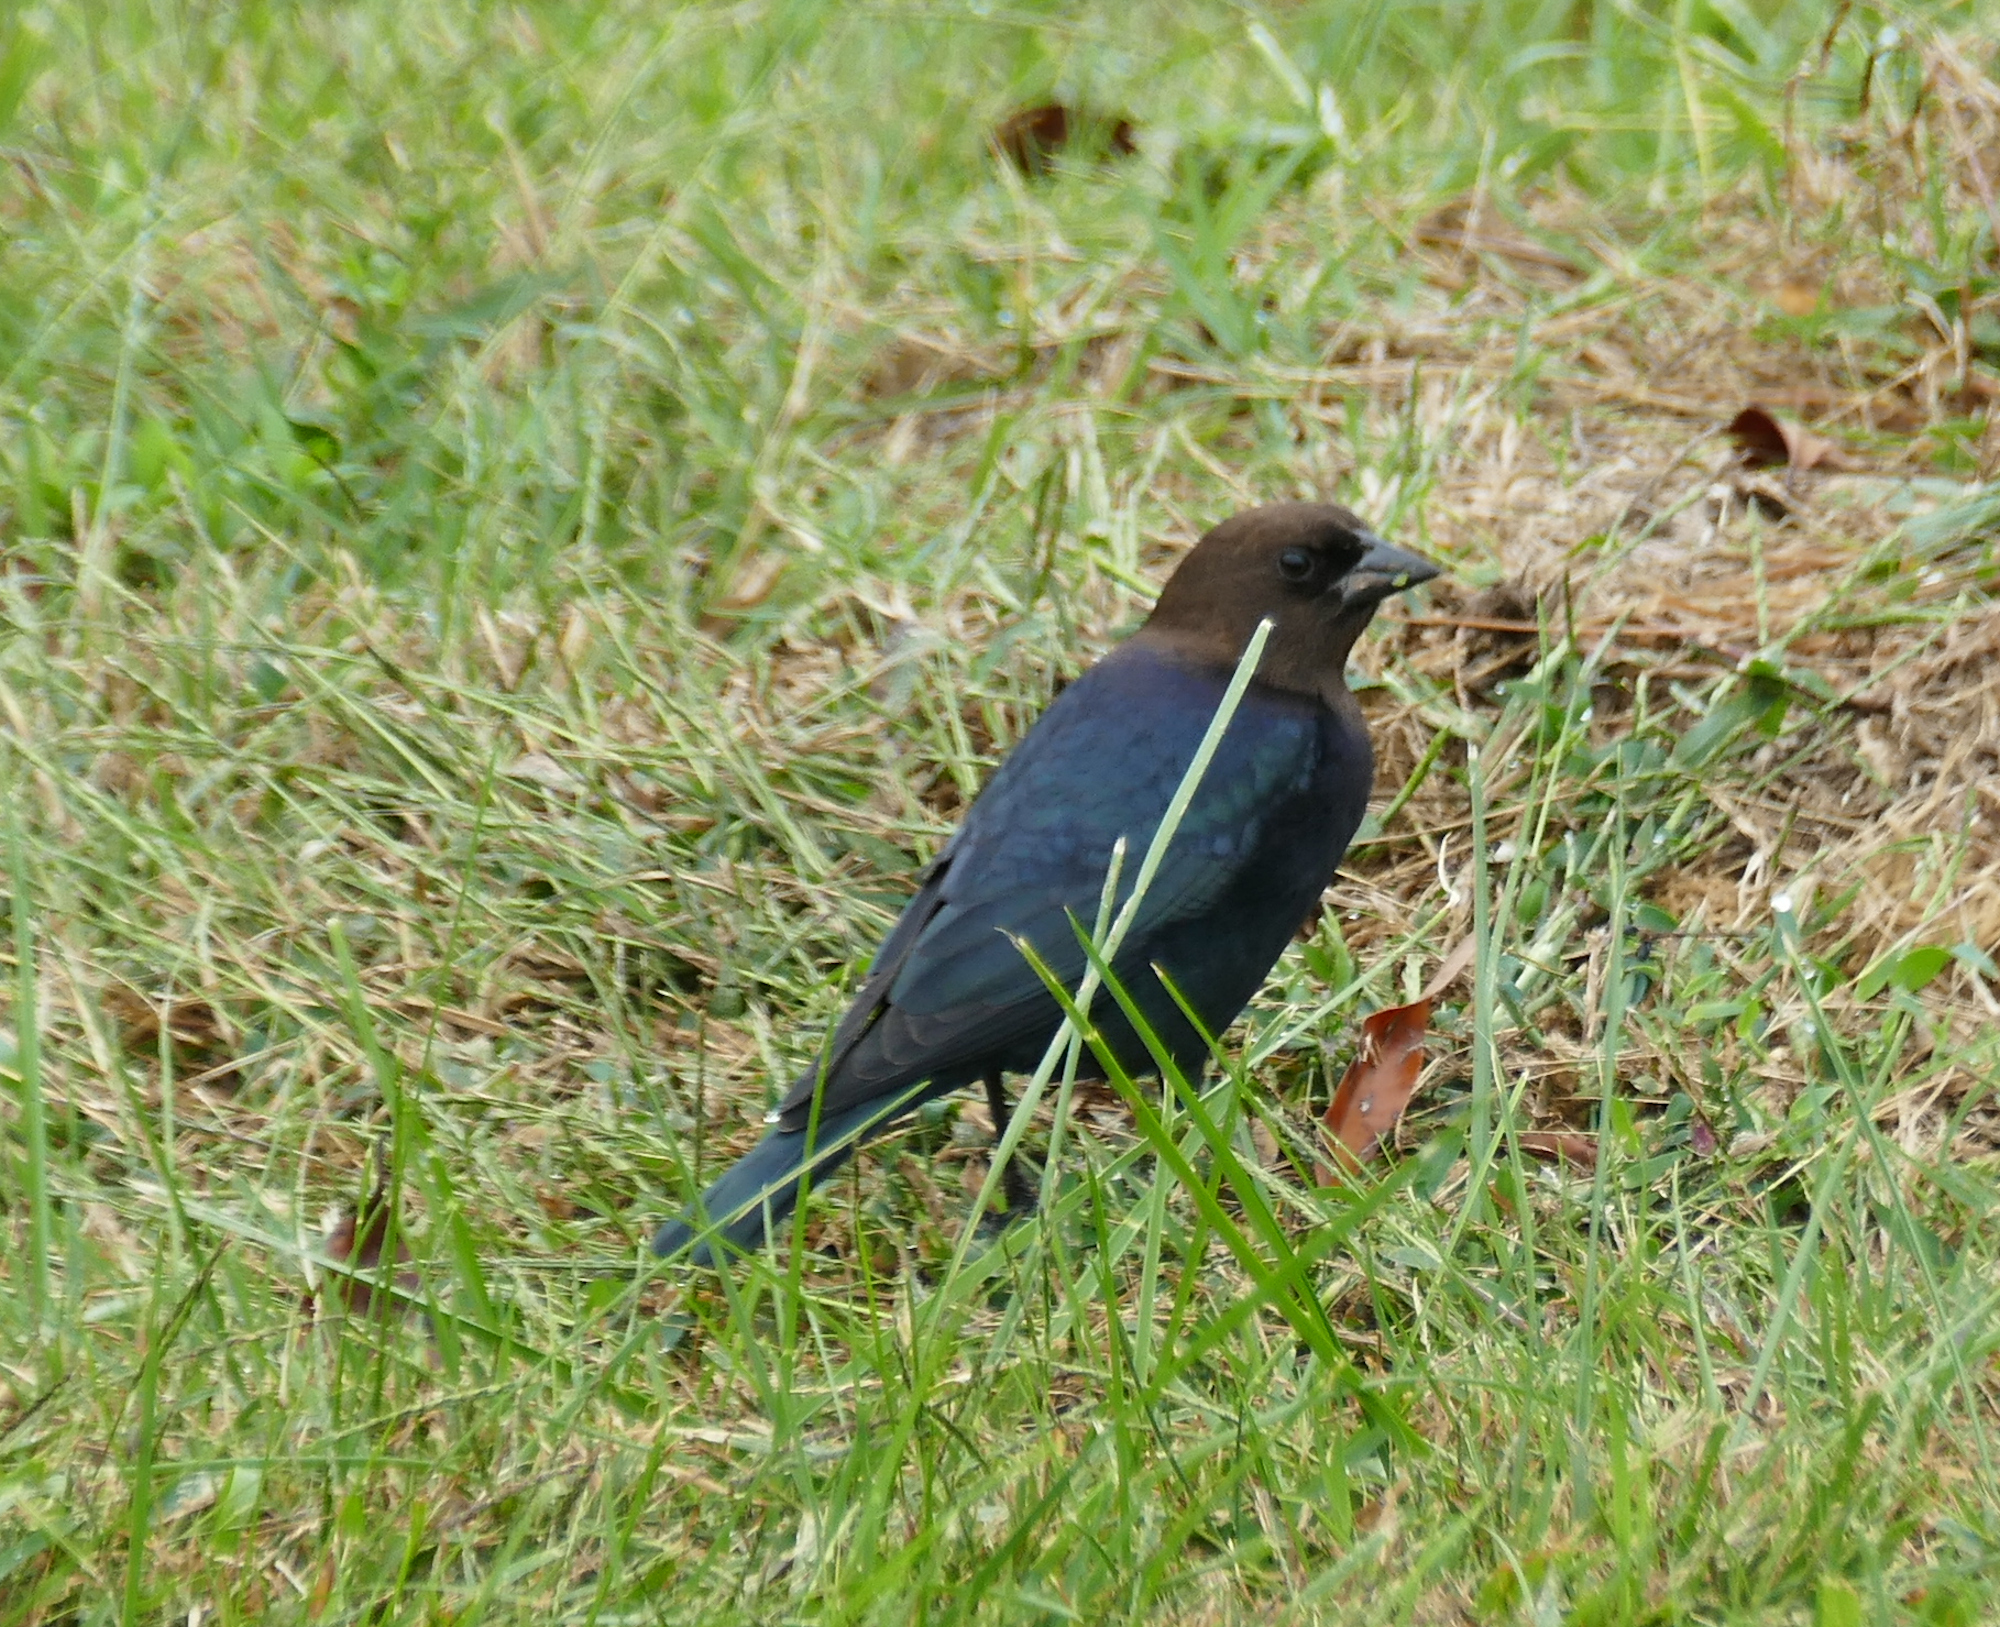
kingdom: Animalia
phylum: Chordata
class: Aves
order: Passeriformes
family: Icteridae
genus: Molothrus
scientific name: Molothrus ater
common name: Brown-headed cowbird
